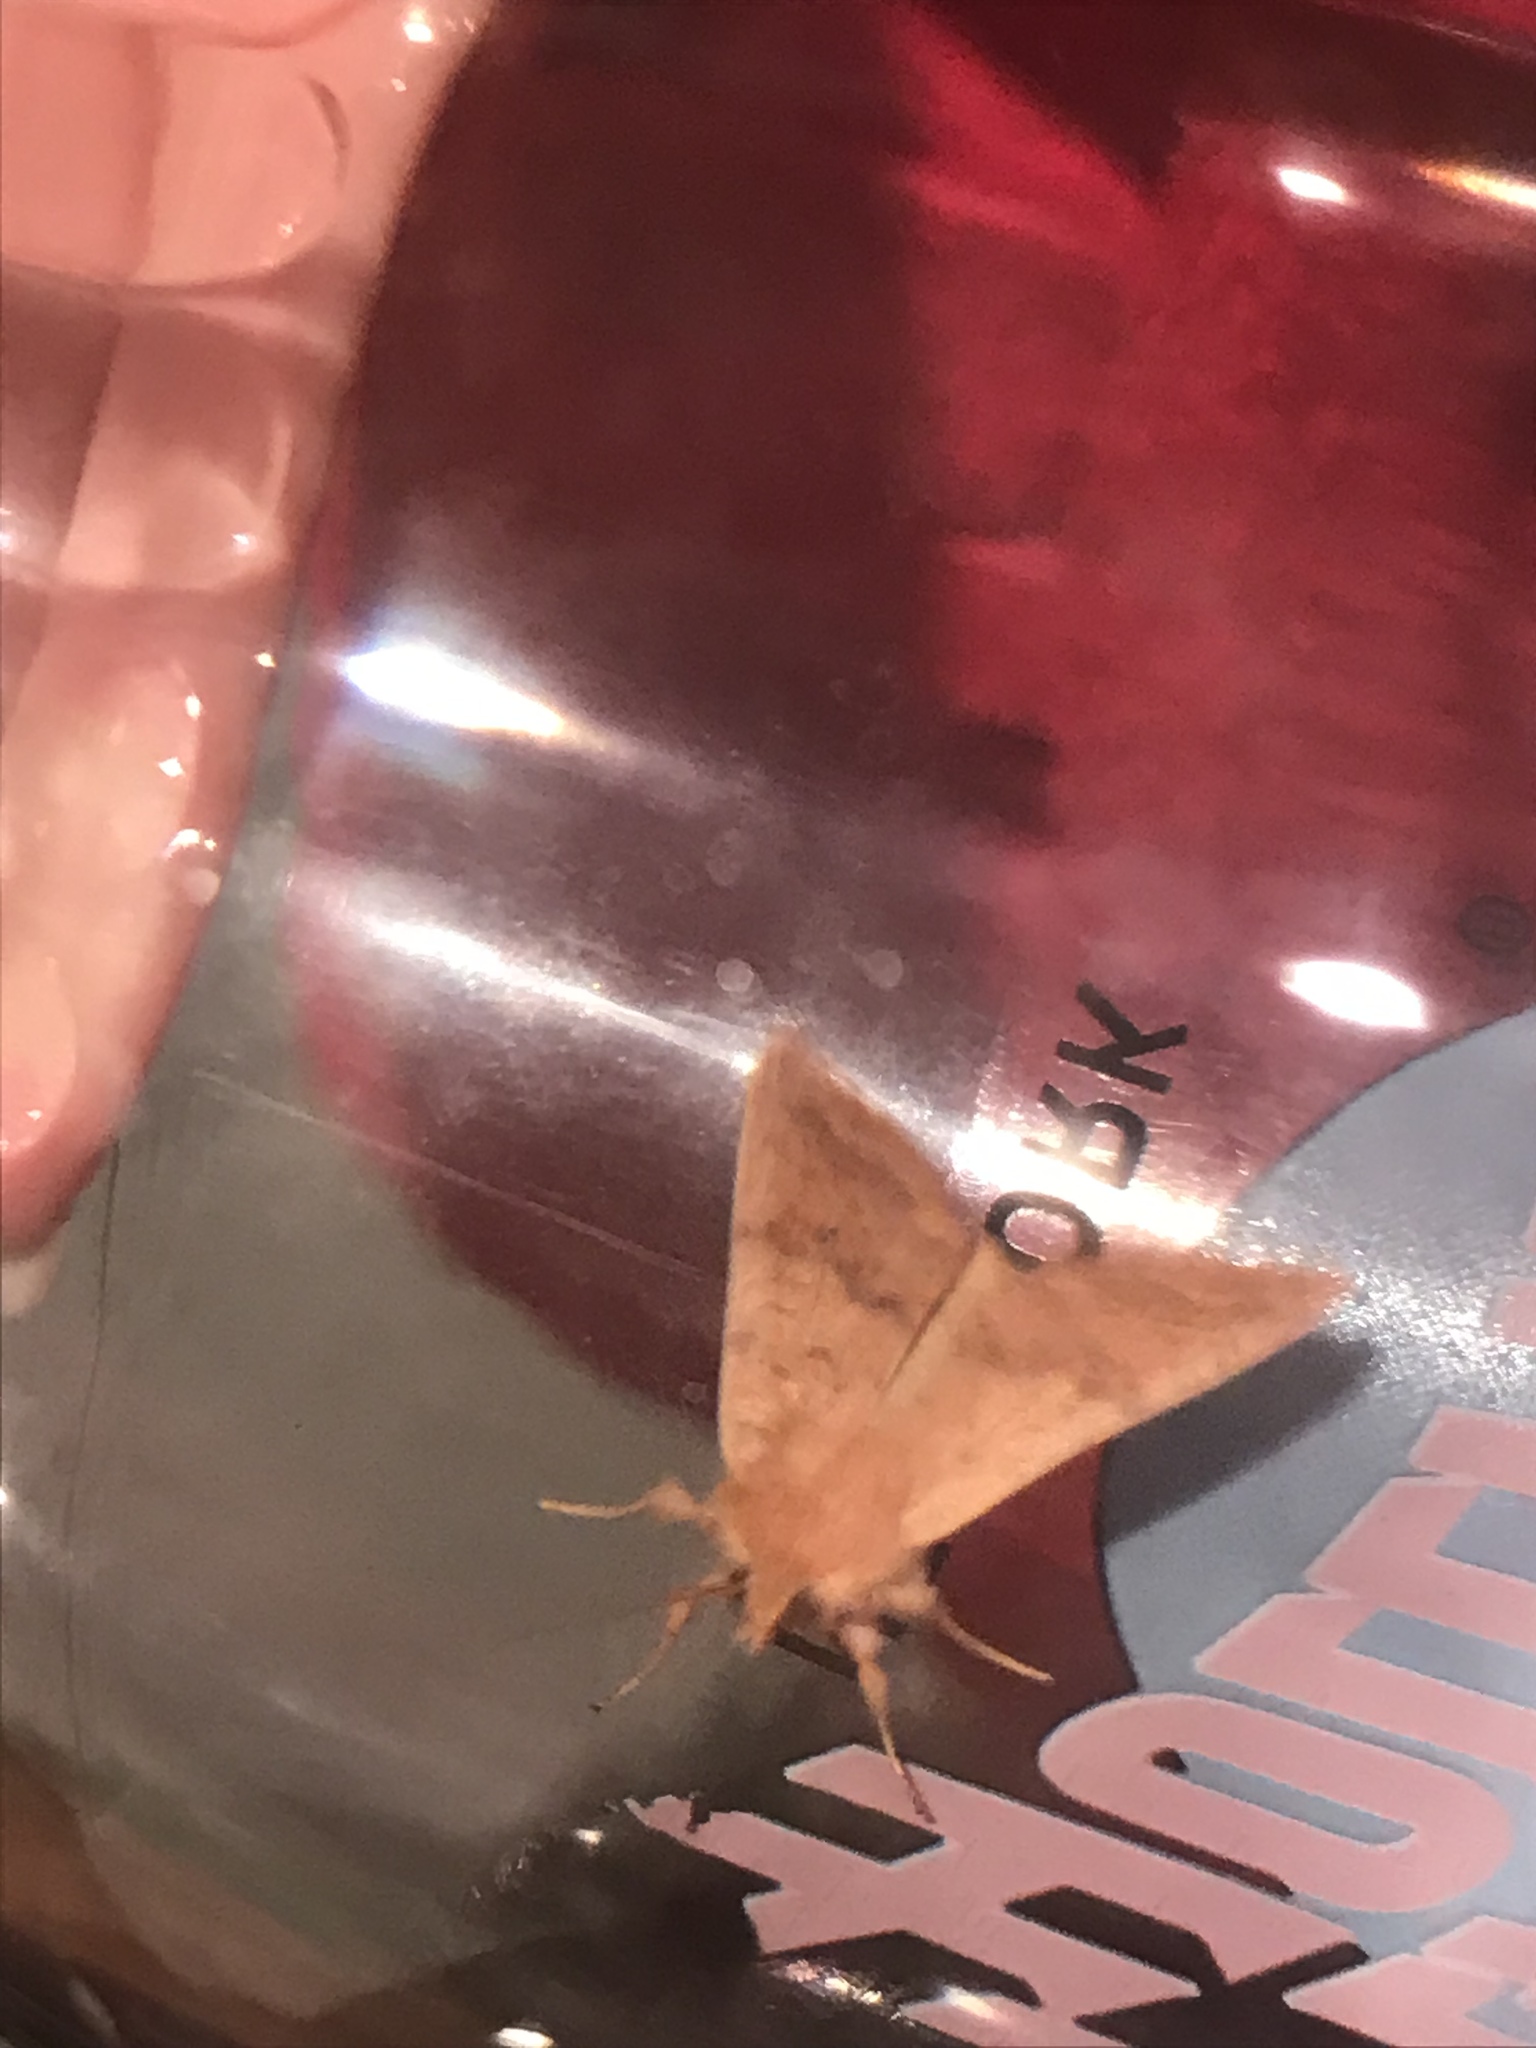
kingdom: Animalia
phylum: Arthropoda
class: Insecta
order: Lepidoptera
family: Noctuidae
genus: Agrochola
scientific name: Agrochola bicolorago
